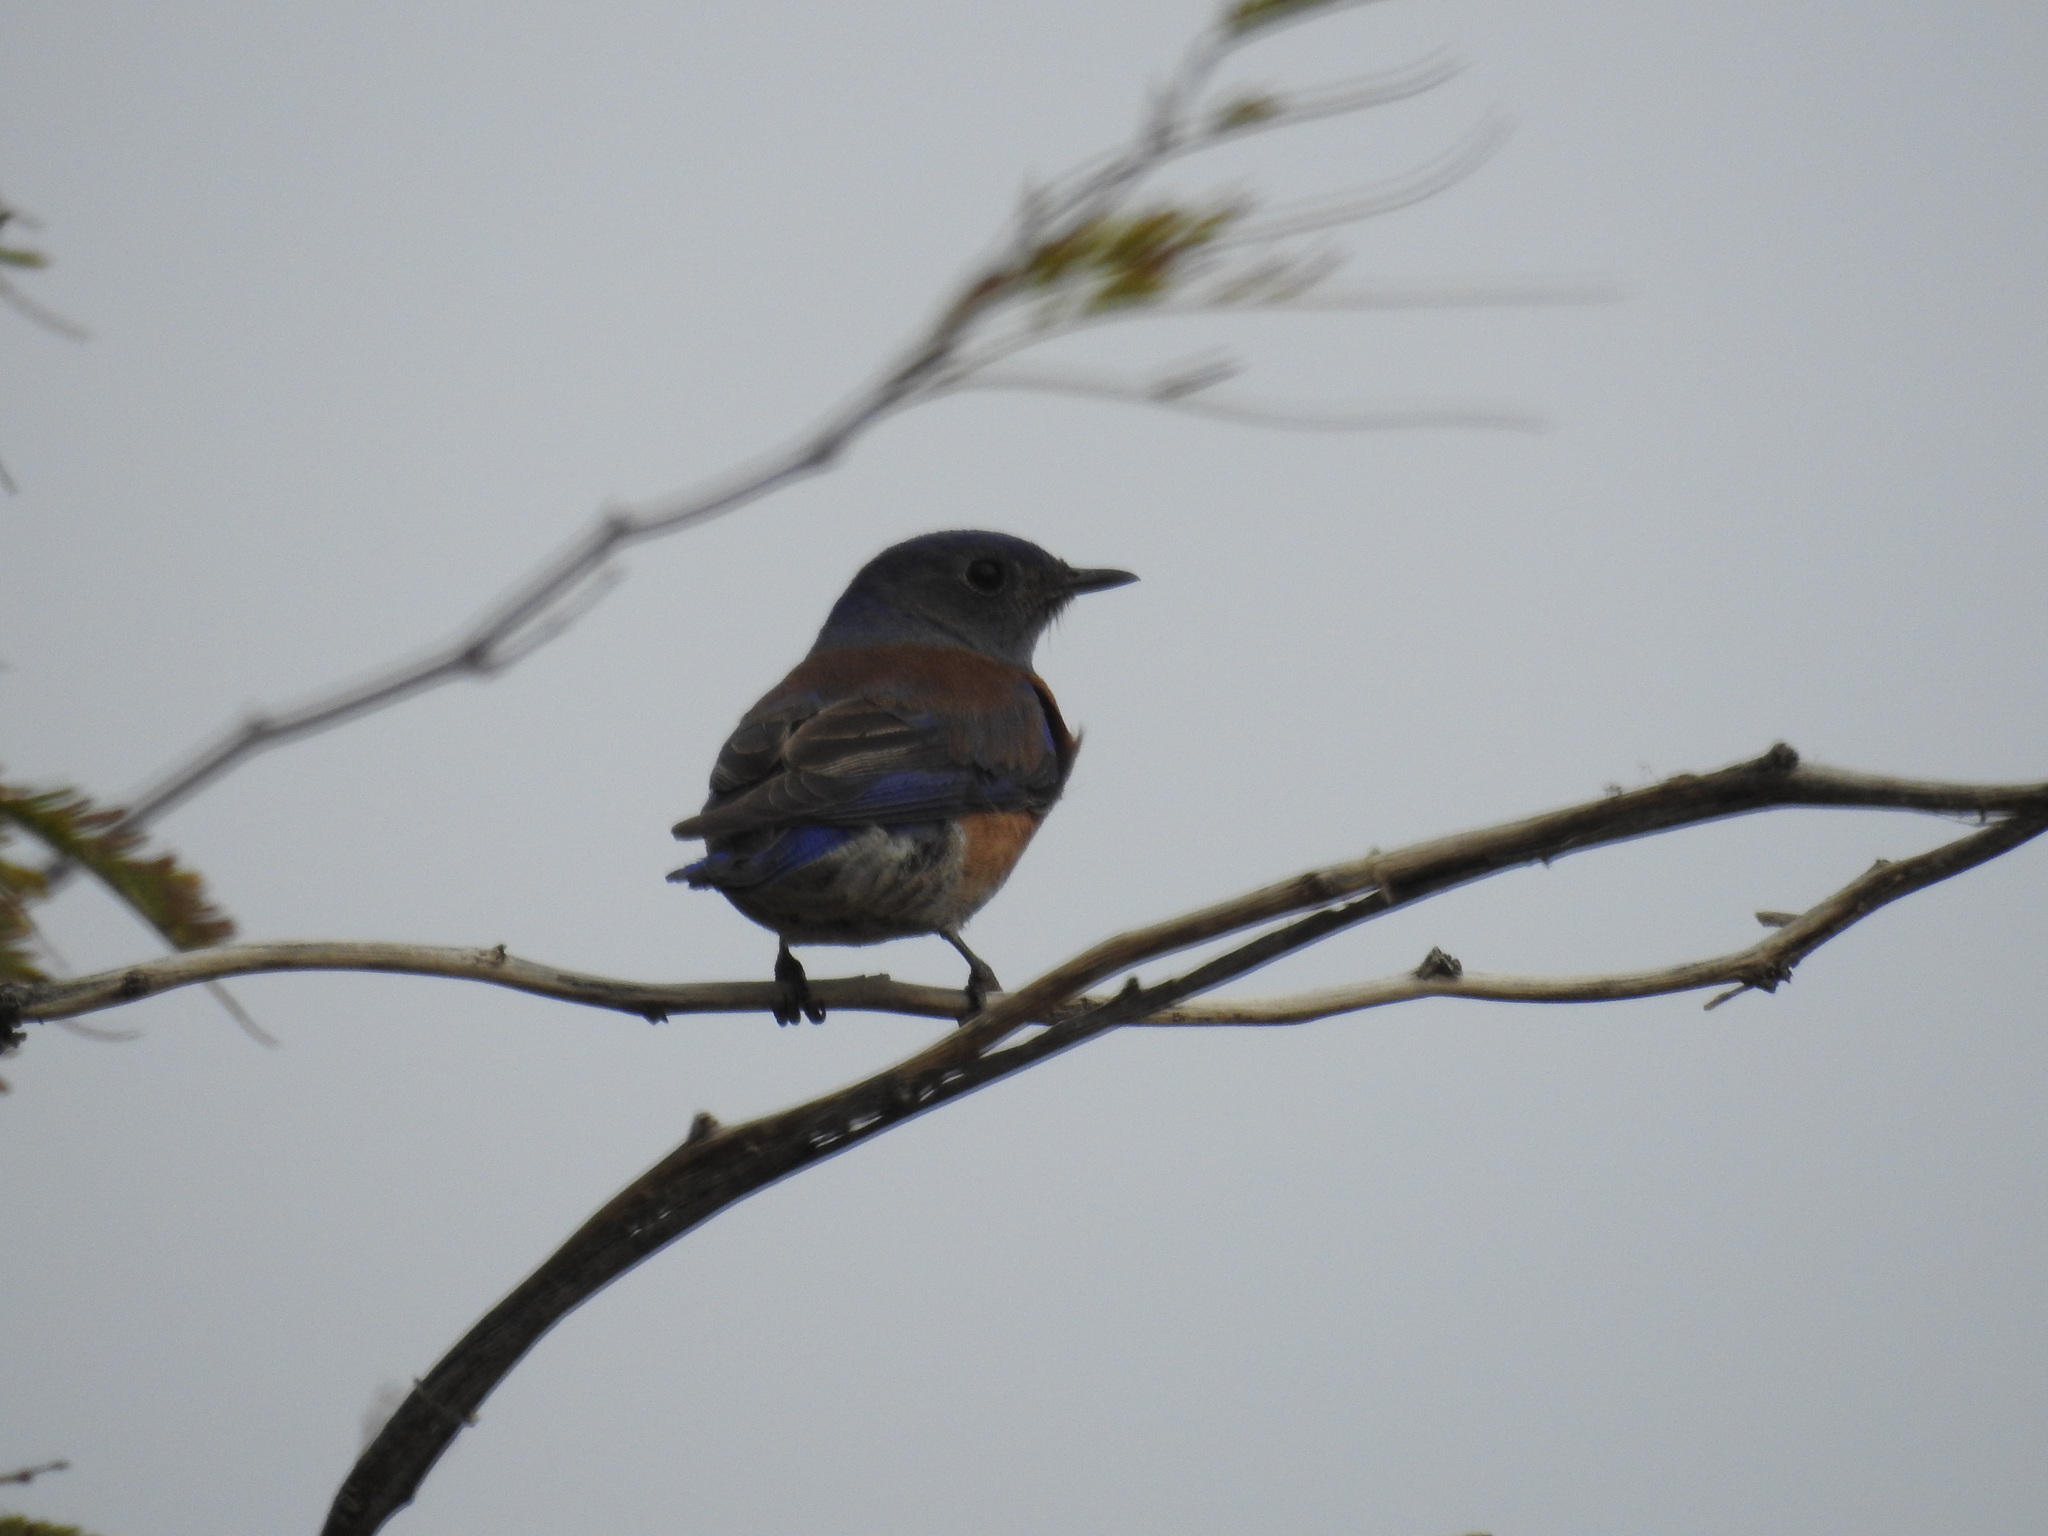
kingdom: Animalia
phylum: Chordata
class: Aves
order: Passeriformes
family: Turdidae
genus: Sialia
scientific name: Sialia mexicana
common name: Western bluebird
